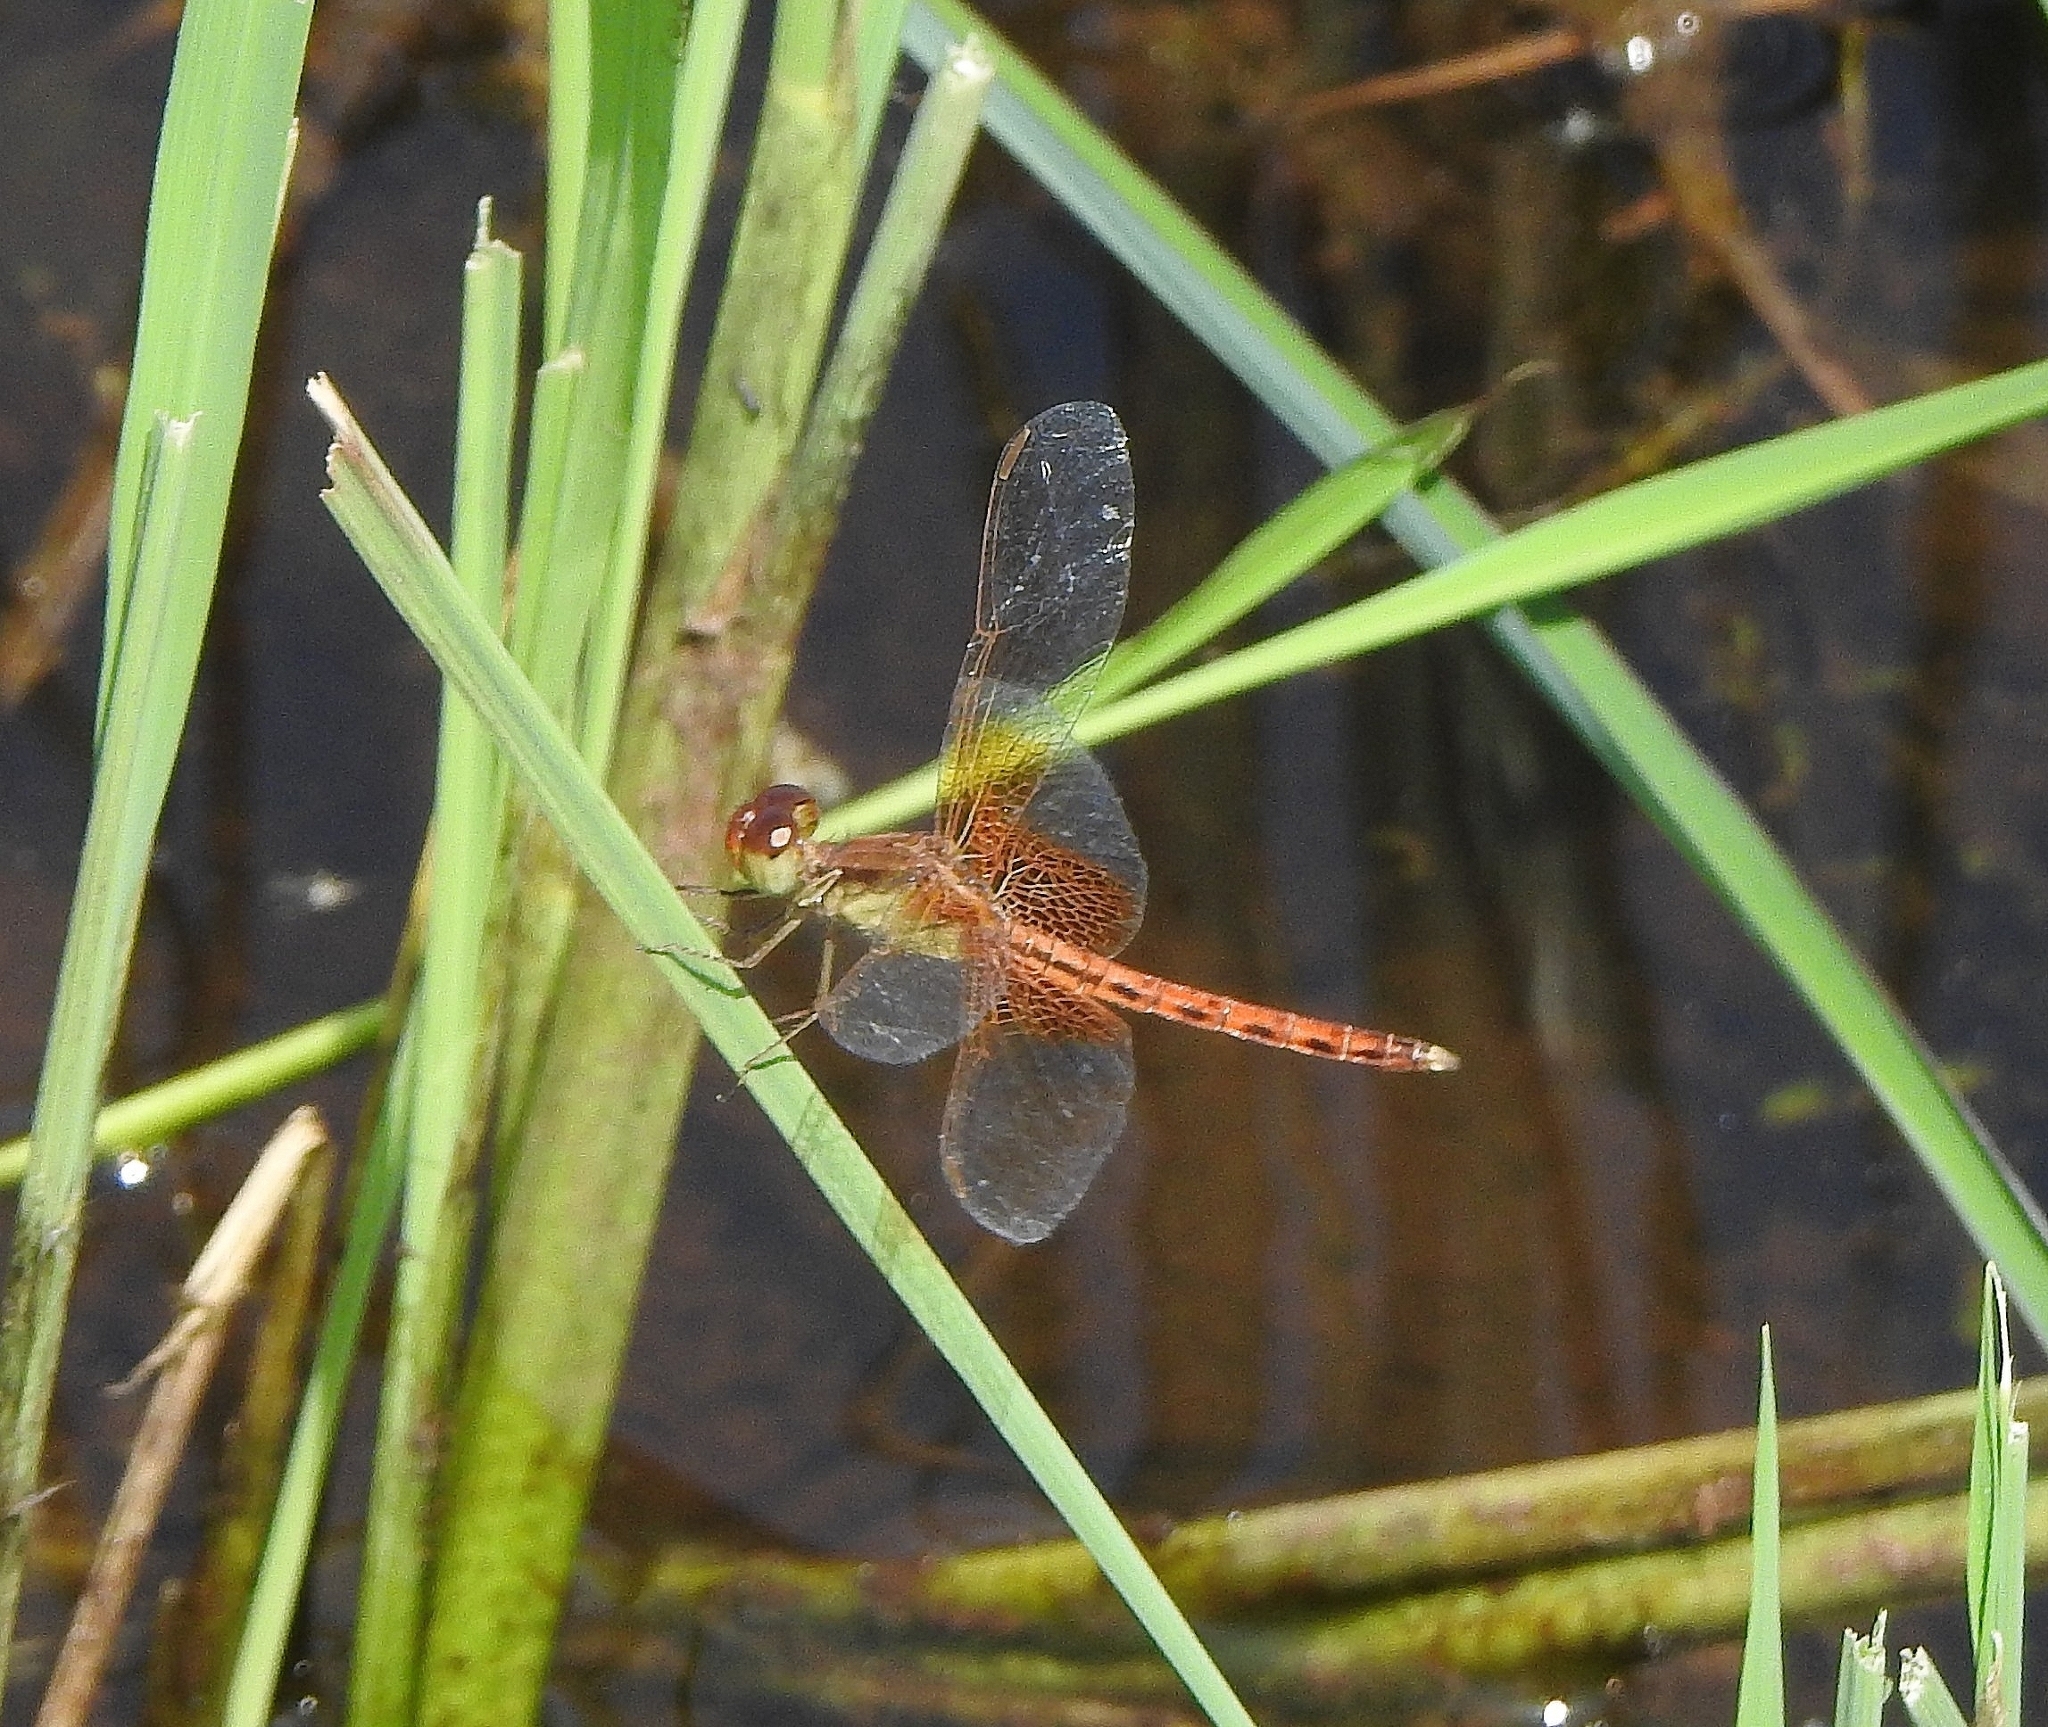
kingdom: Animalia
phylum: Arthropoda
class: Insecta
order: Odonata
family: Libellulidae
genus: Neurothemis
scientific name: Neurothemis intermedia
